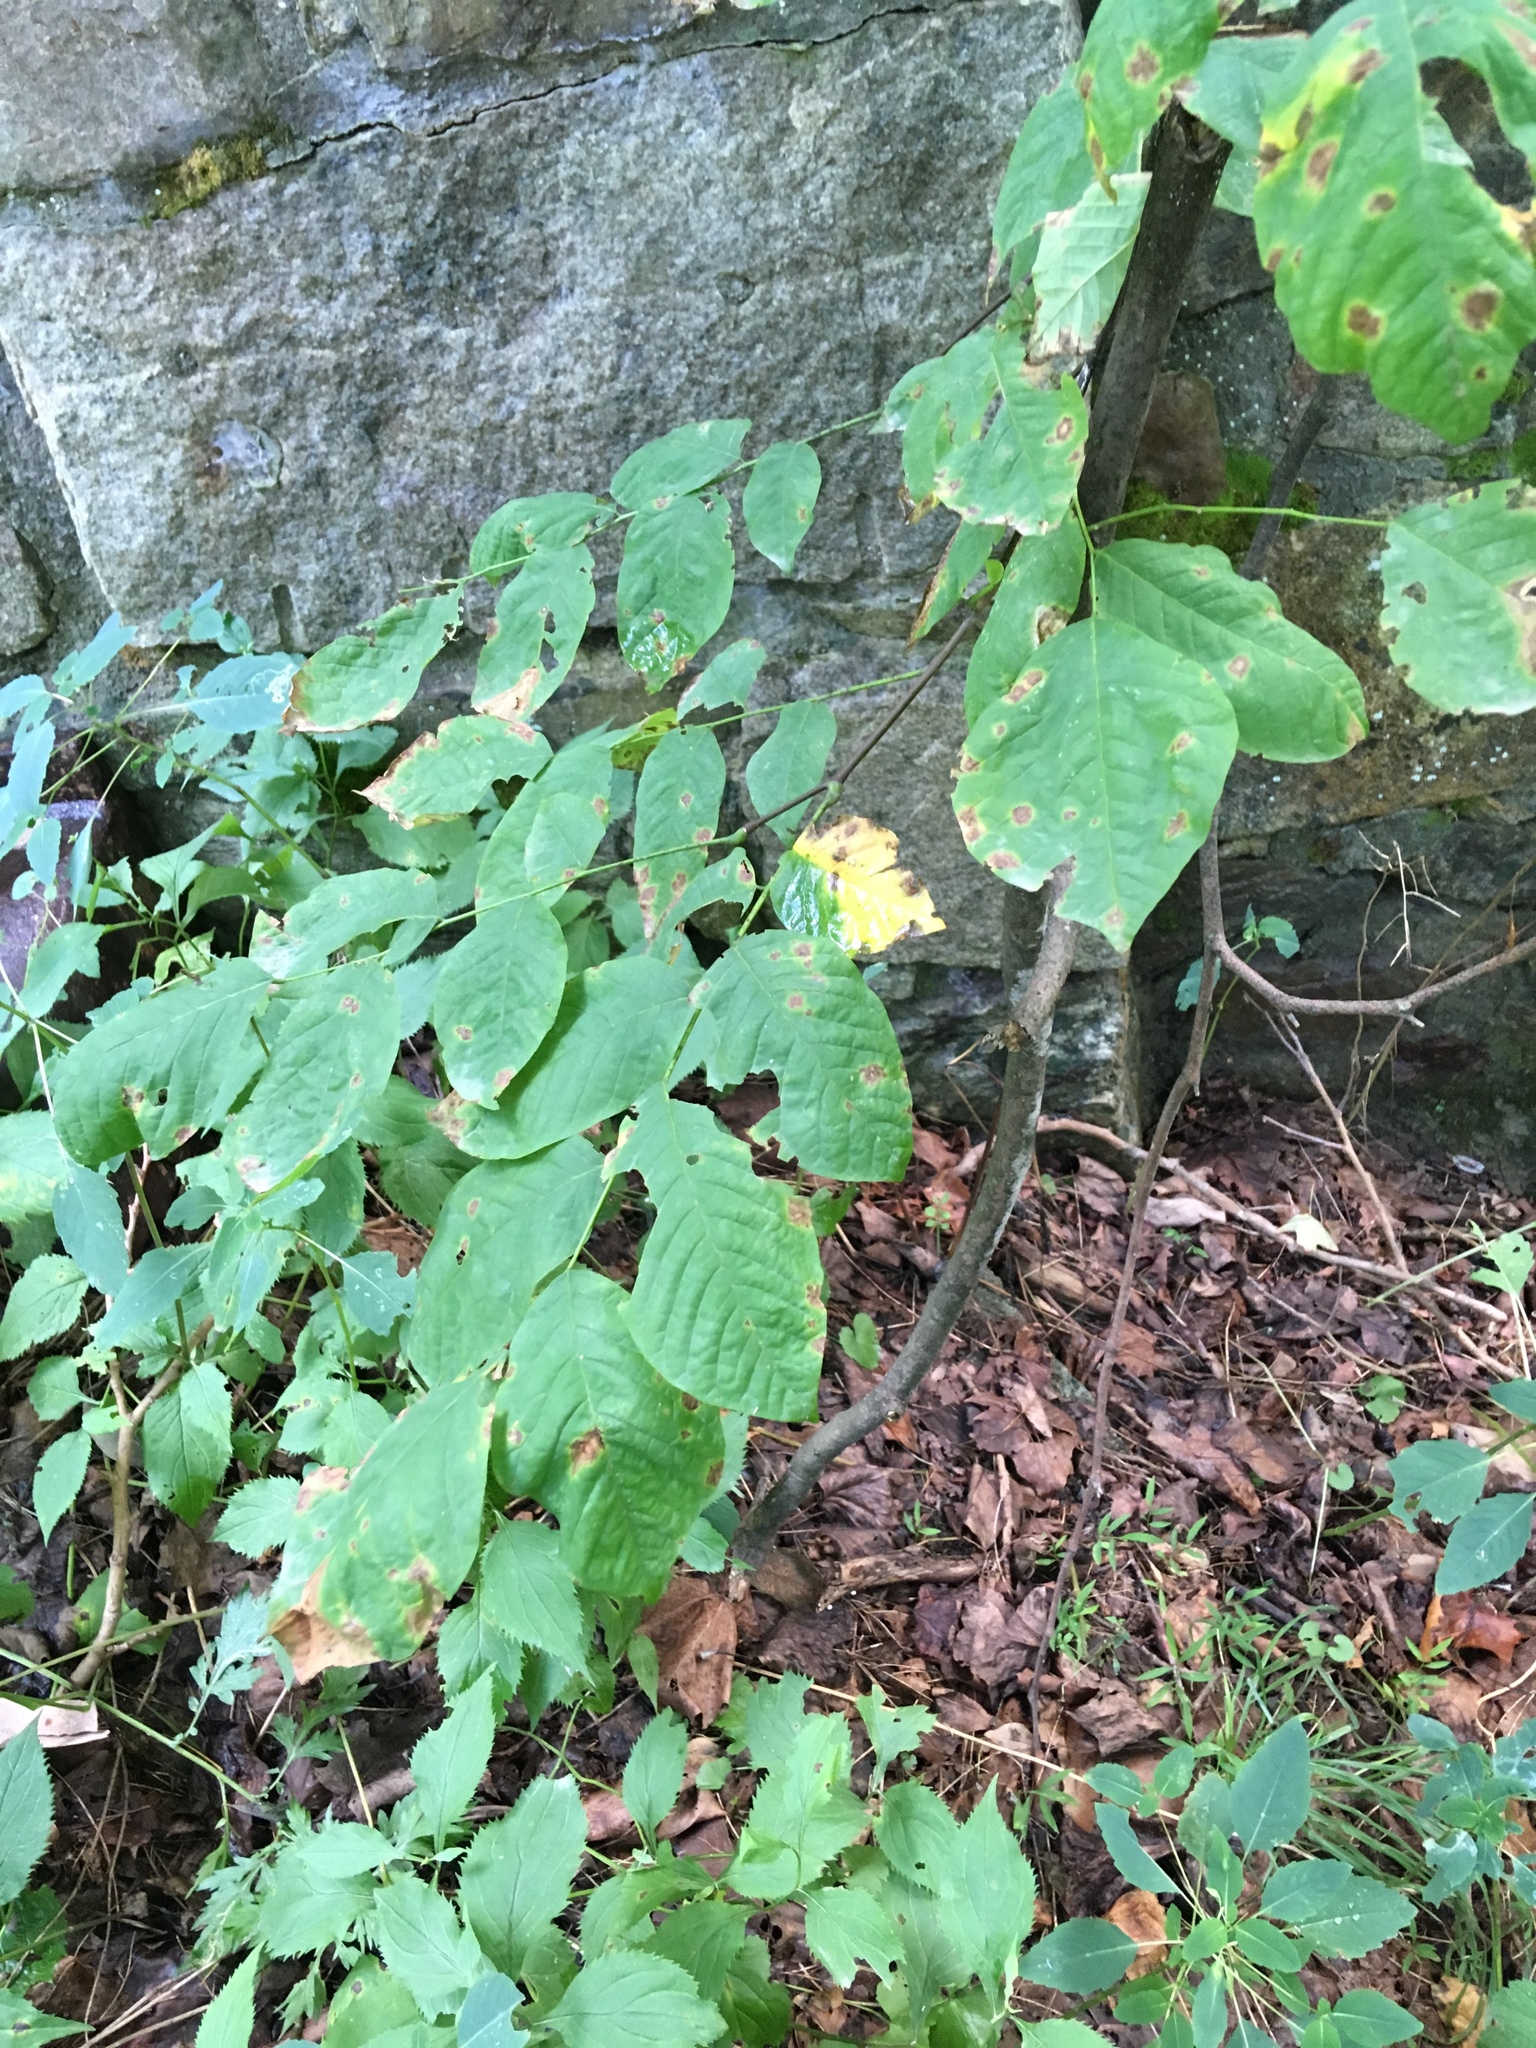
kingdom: Plantae
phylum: Tracheophyta
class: Magnoliopsida
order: Fabales
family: Fabaceae
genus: Cladrastis
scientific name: Cladrastis kentukea
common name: Kentucky yellow-wood
